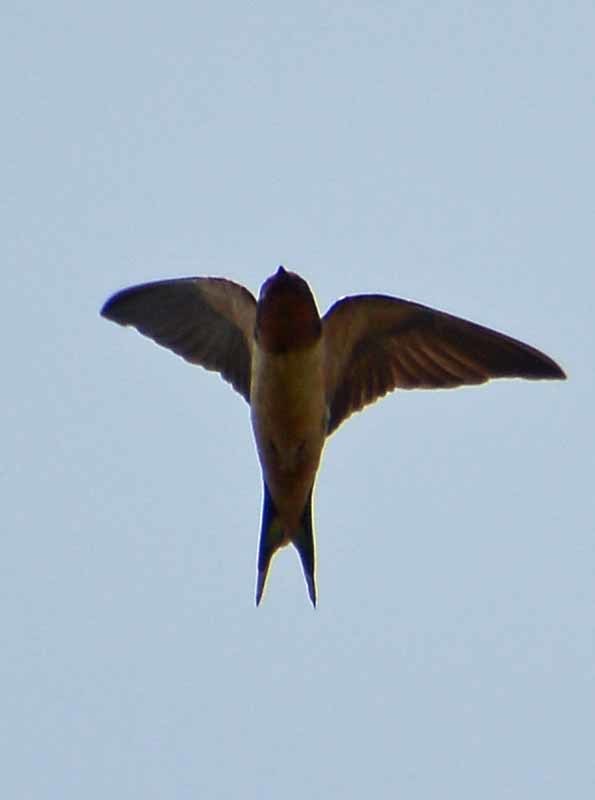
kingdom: Animalia
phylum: Chordata
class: Aves
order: Passeriformes
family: Hirundinidae
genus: Hirundo
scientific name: Hirundo rustica
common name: Barn swallow
